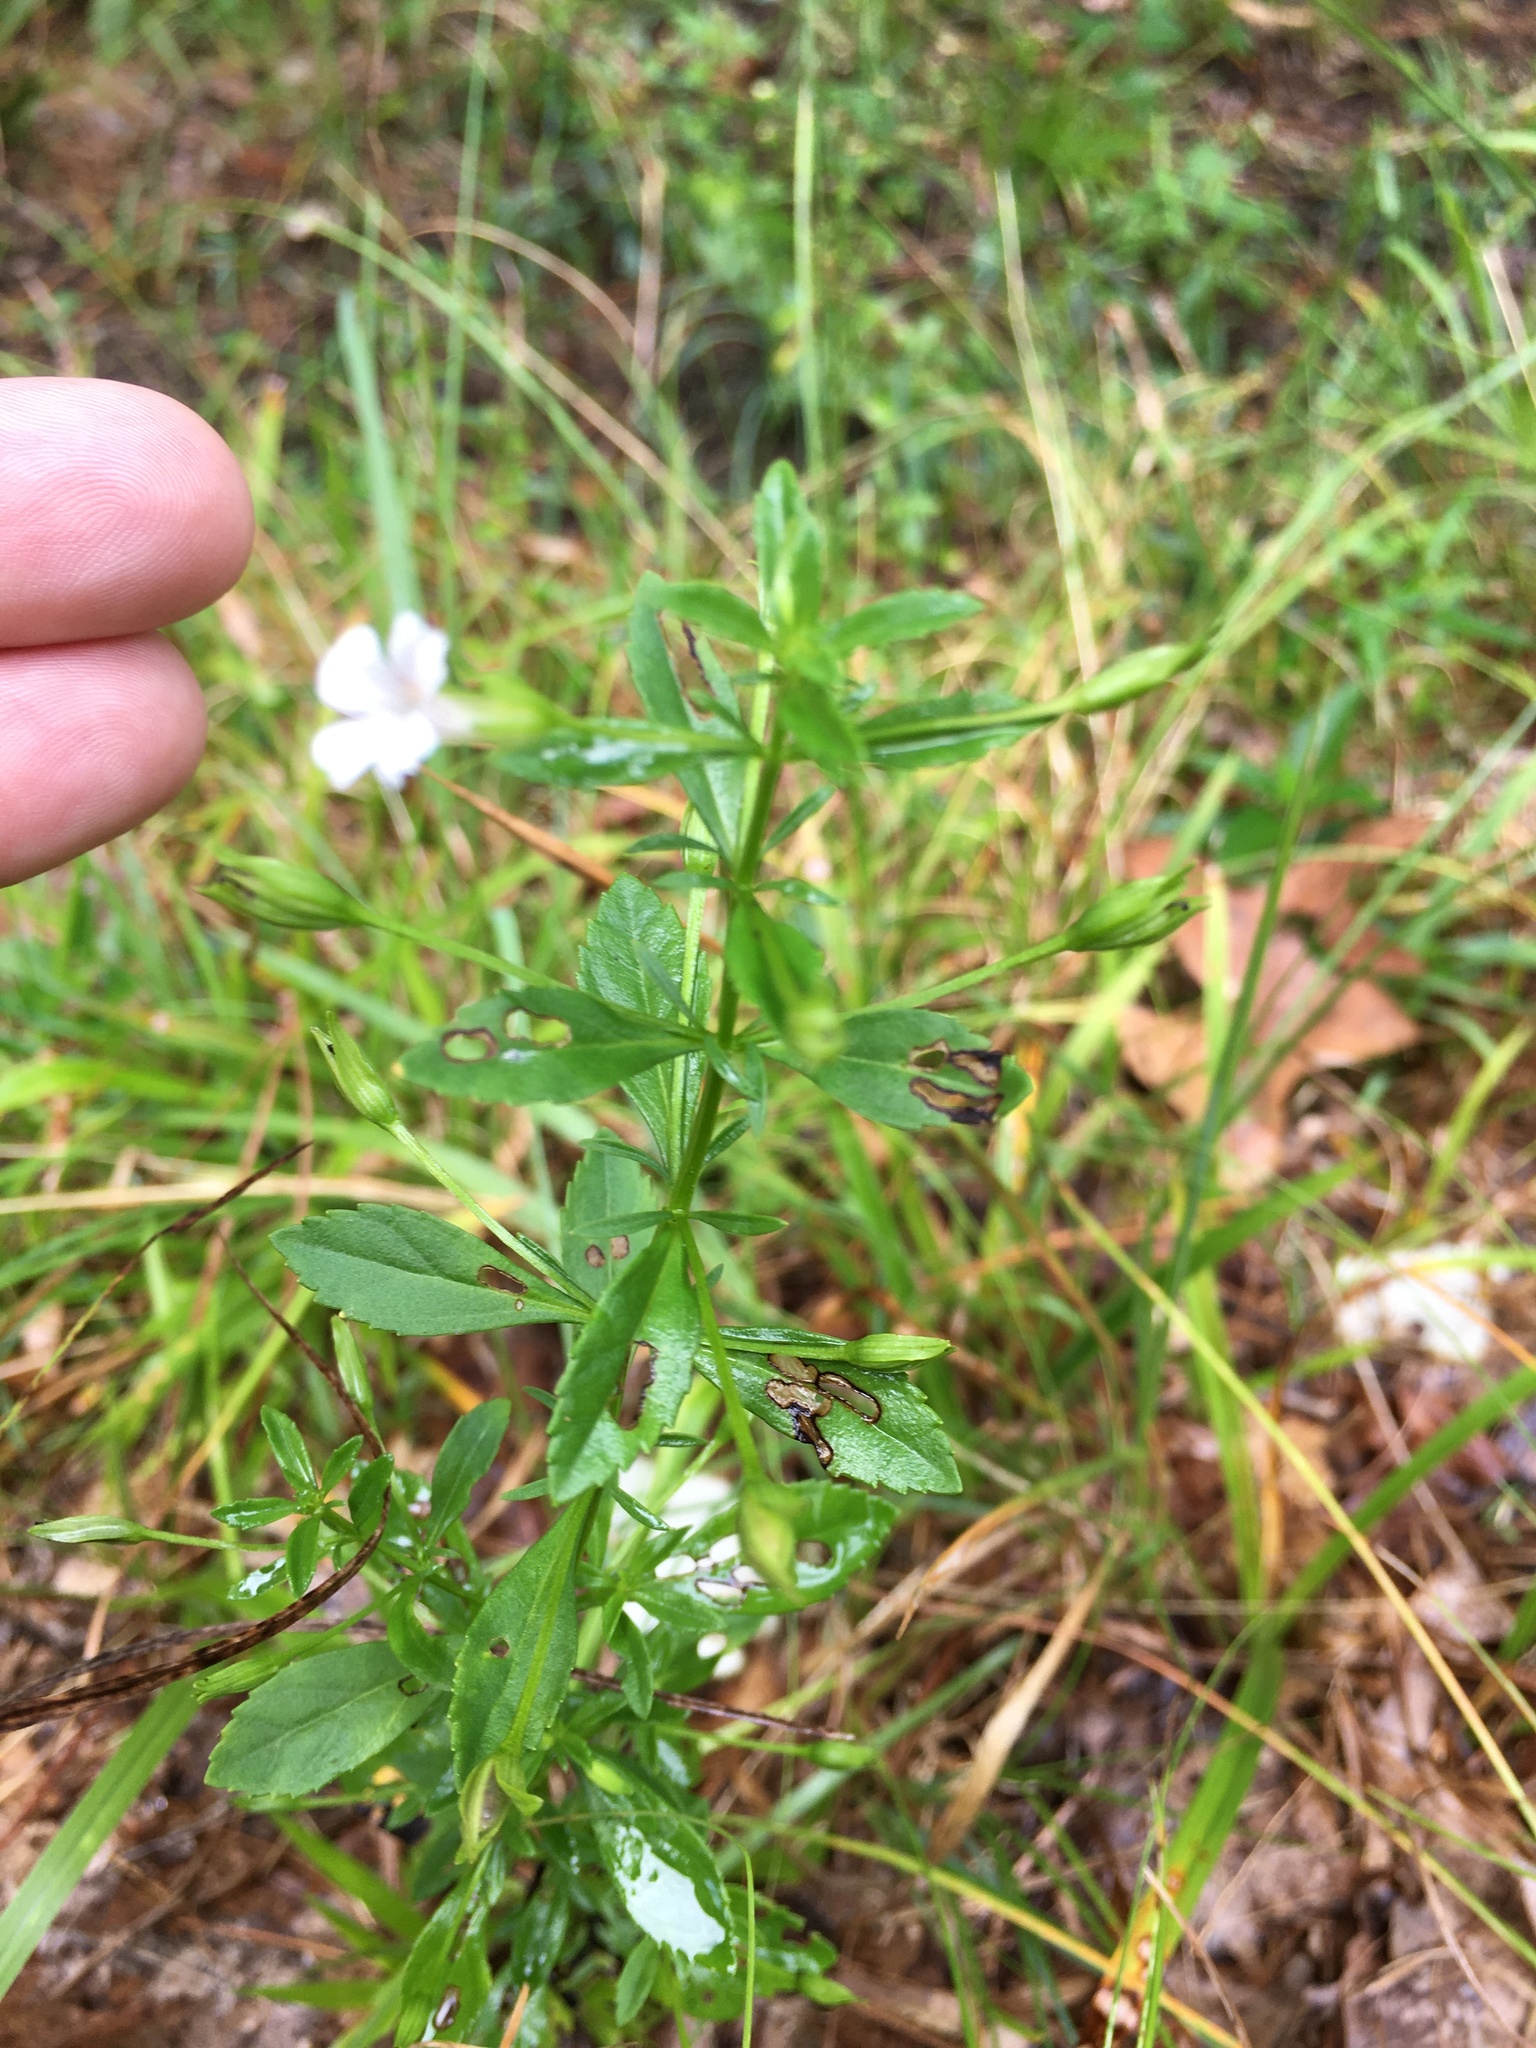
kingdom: Plantae
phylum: Tracheophyta
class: Magnoliopsida
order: Lamiales
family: Plantaginaceae
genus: Mecardonia
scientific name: Mecardonia acuminata
